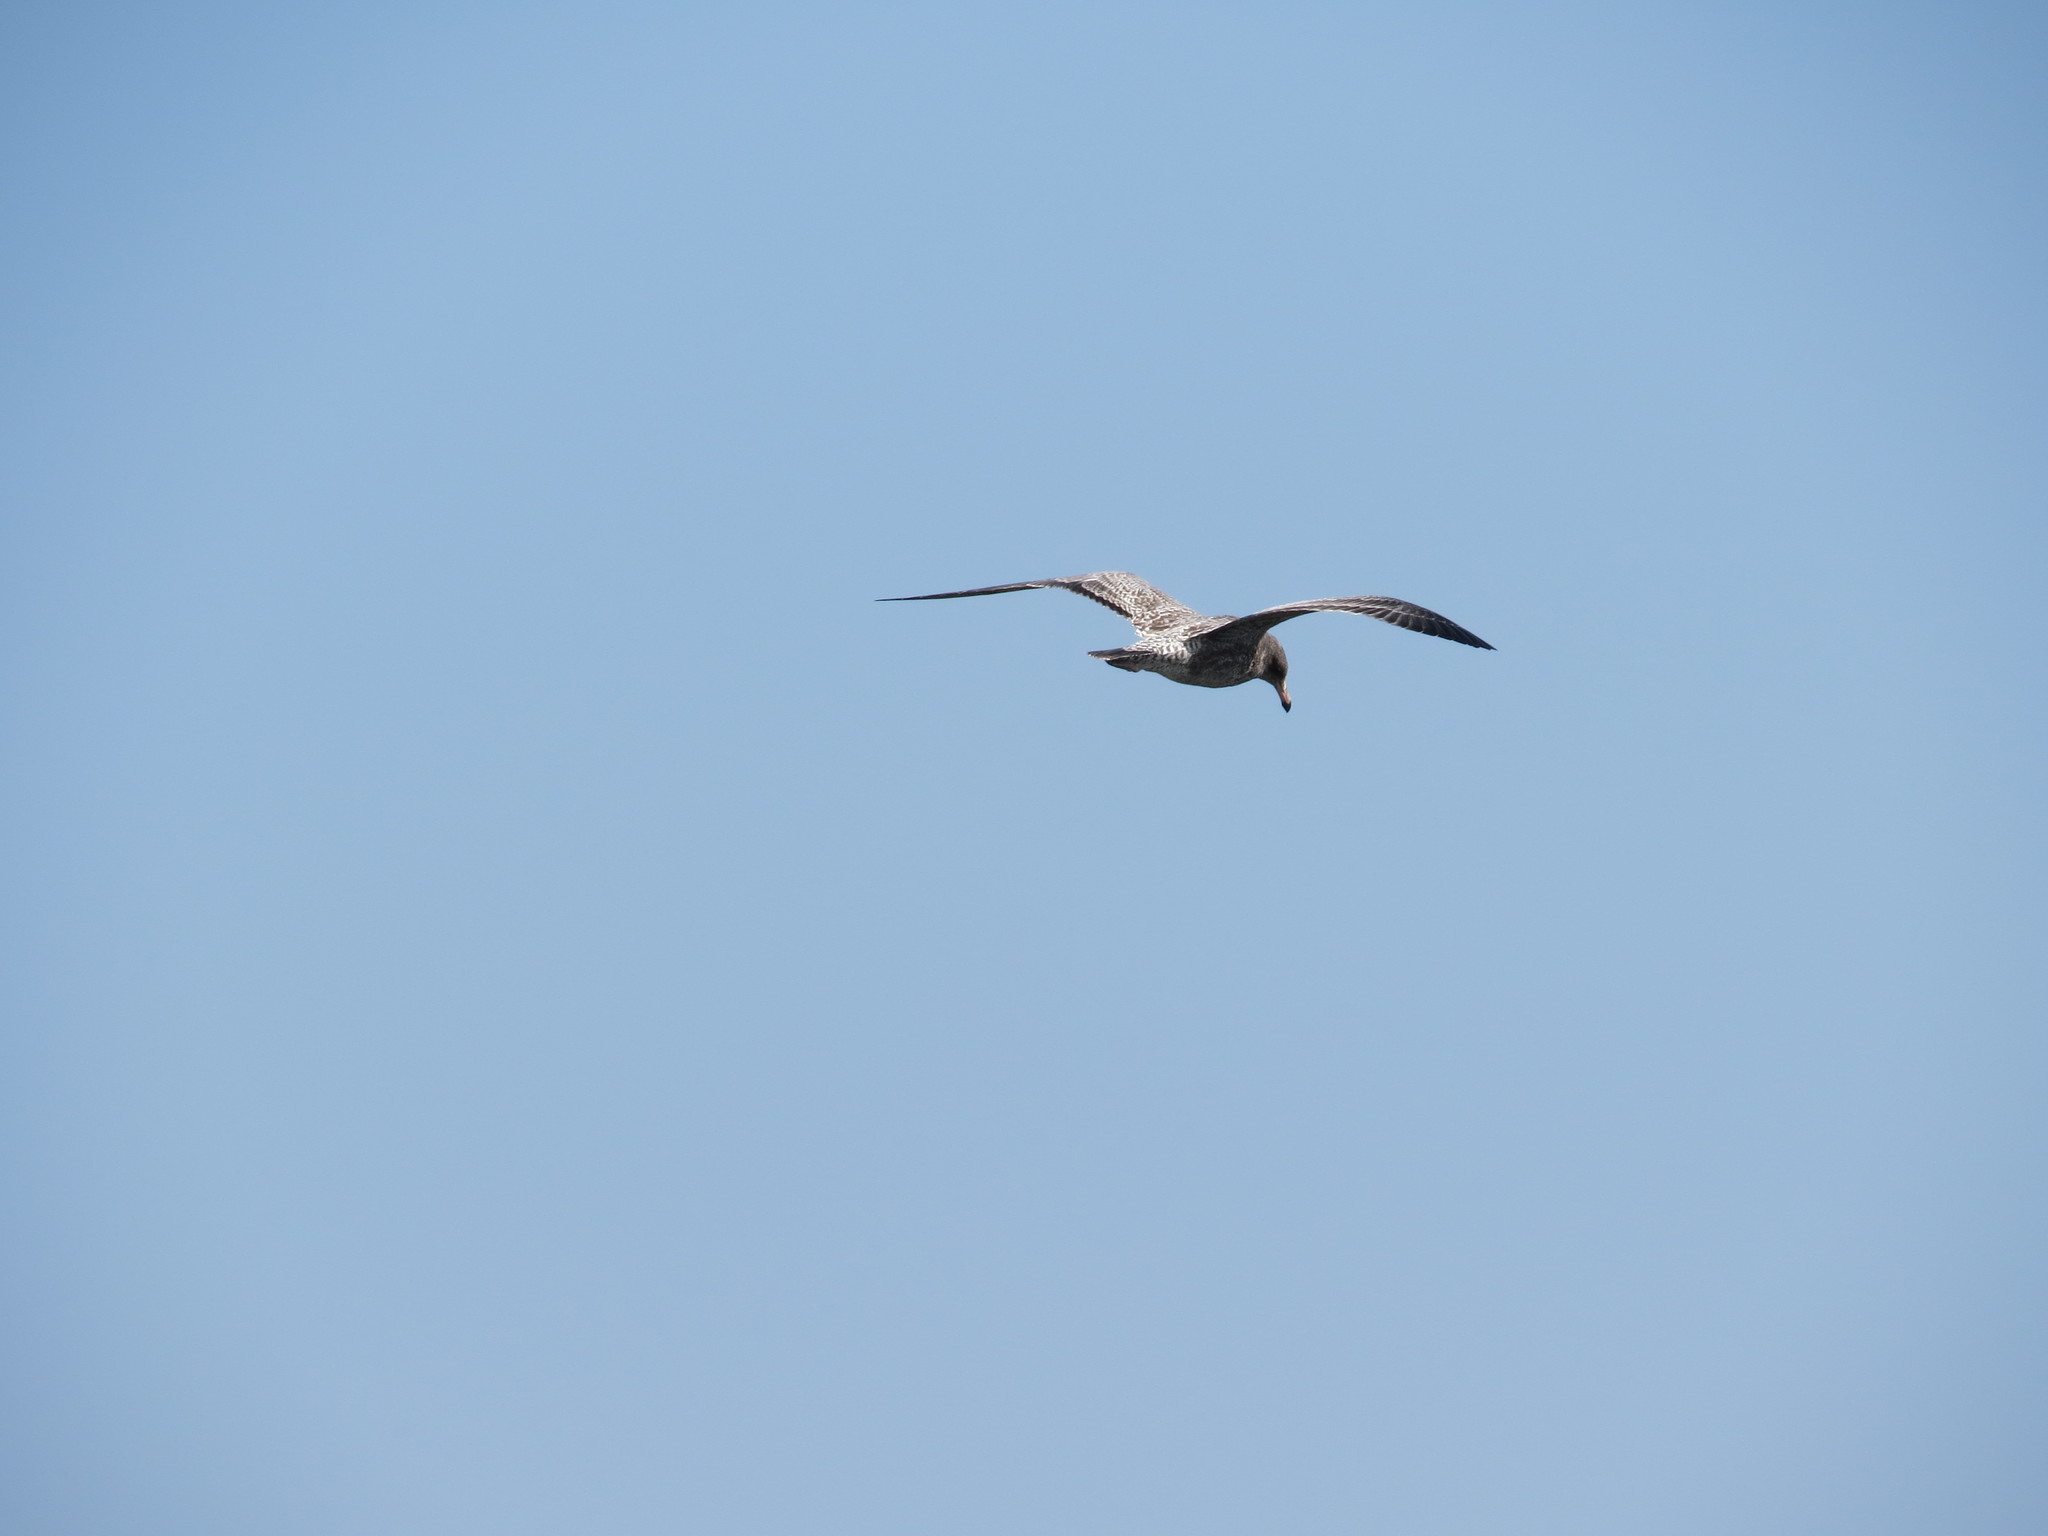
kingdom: Animalia
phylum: Chordata
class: Aves
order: Charadriiformes
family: Laridae
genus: Larus
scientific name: Larus californicus
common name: California gull
